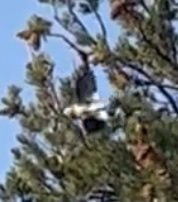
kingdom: Animalia
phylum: Chordata
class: Aves
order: Passeriformes
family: Corvidae
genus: Nucifraga
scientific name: Nucifraga columbiana
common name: Clark's nutcracker
